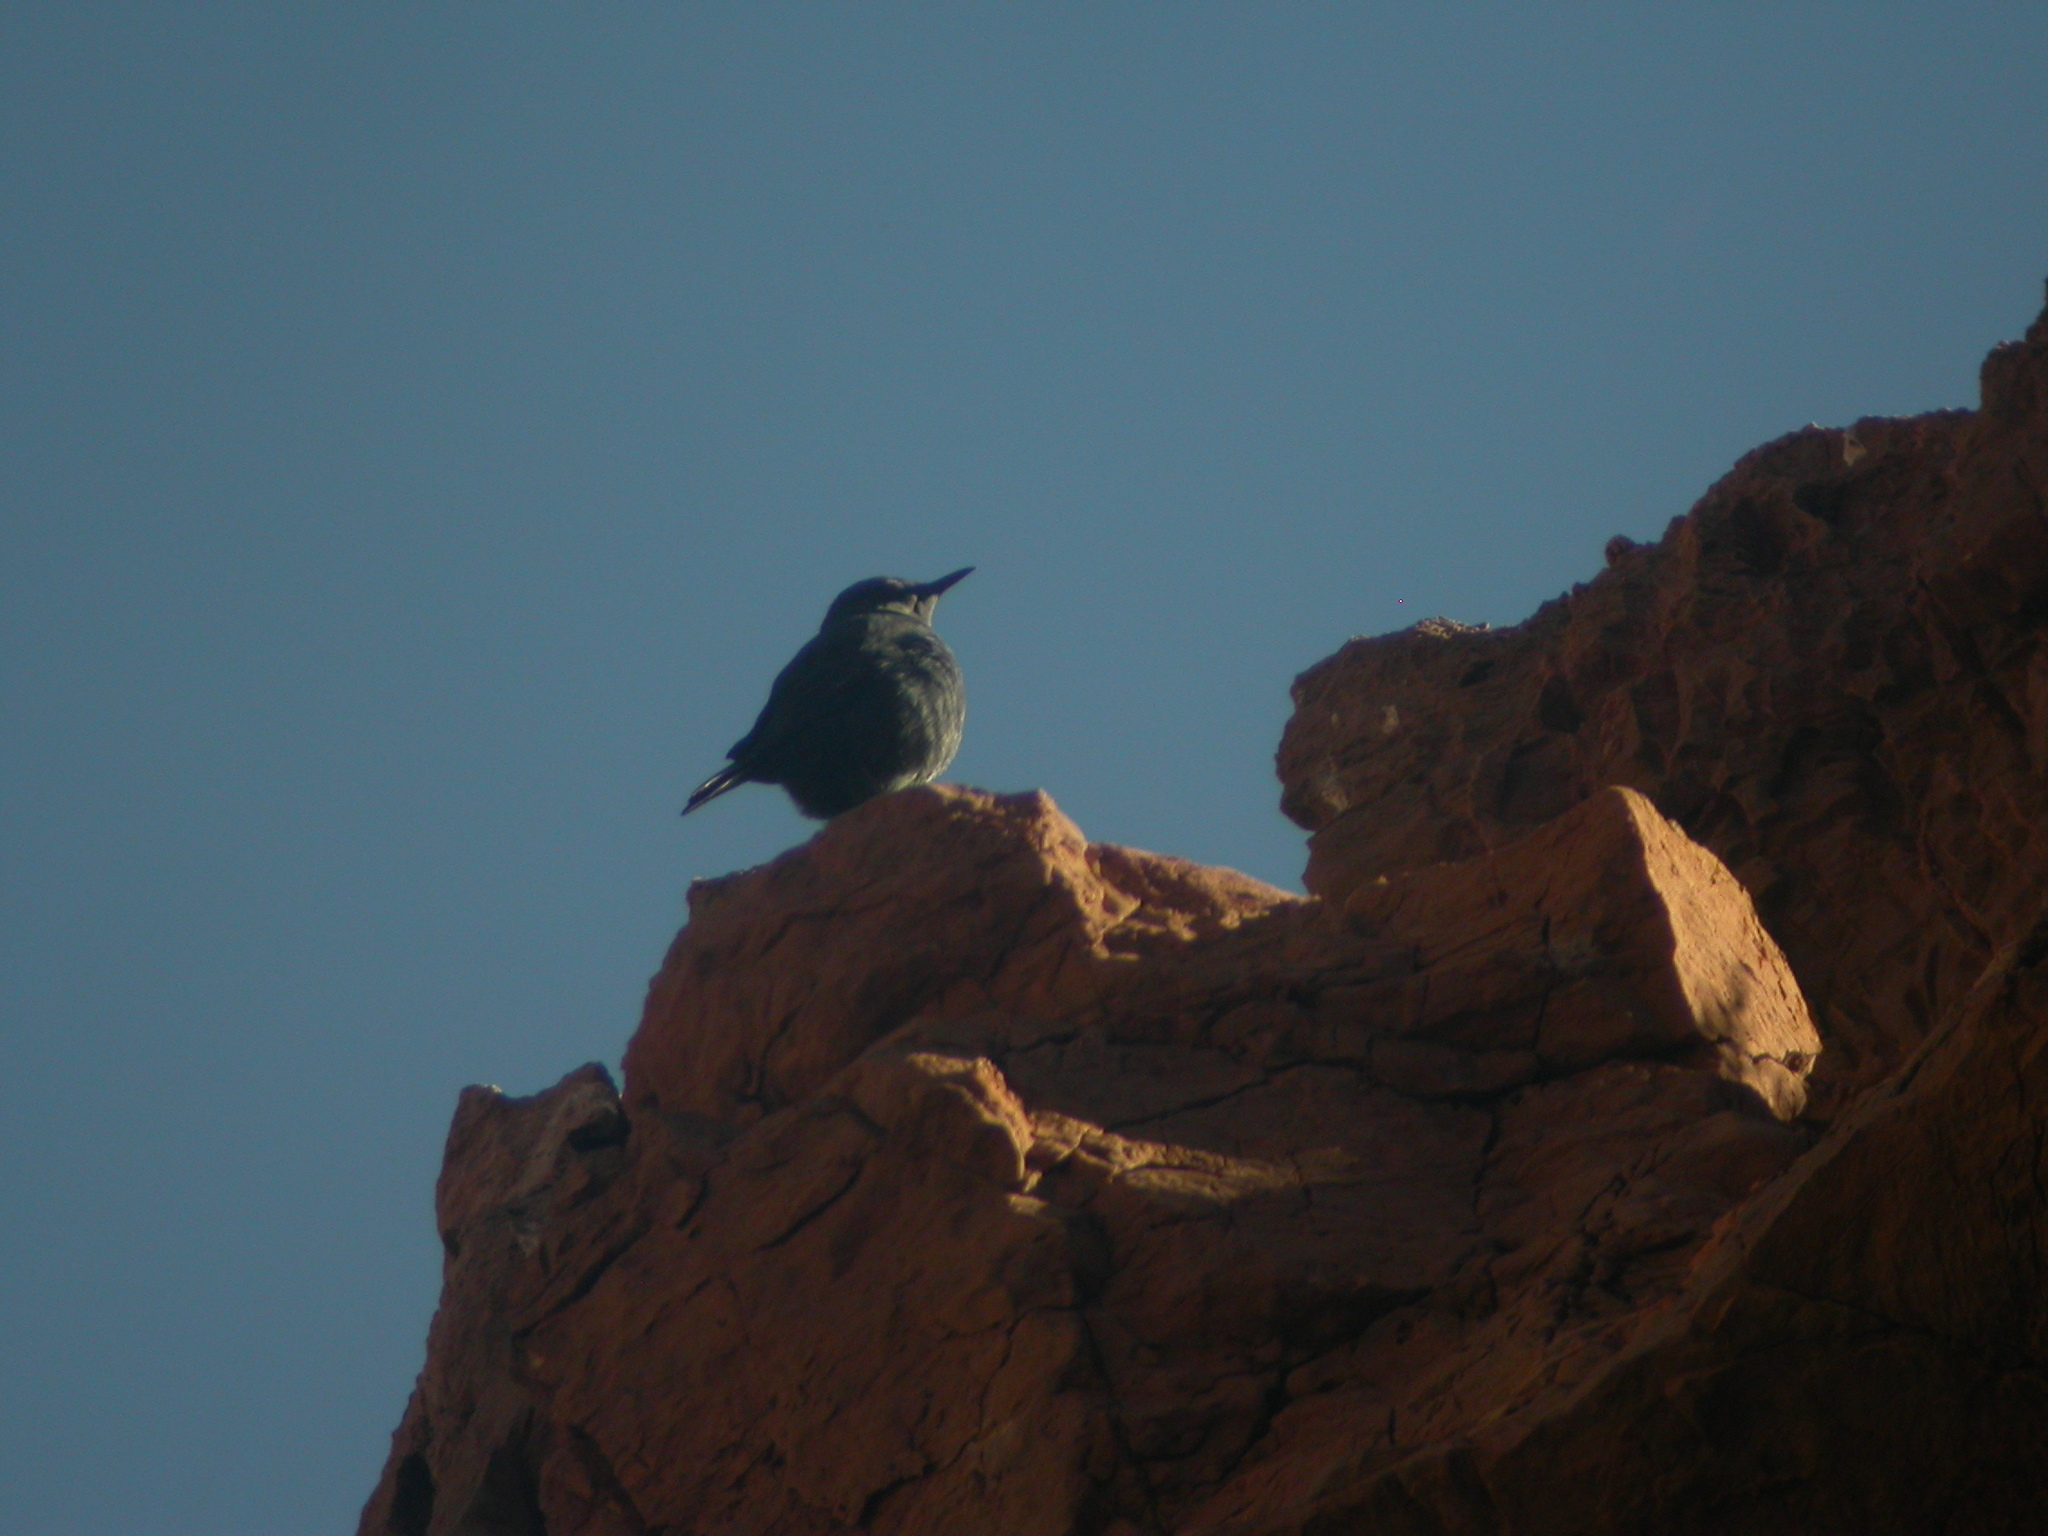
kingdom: Animalia
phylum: Chordata
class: Aves
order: Passeriformes
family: Muscicapidae
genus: Monticola
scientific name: Monticola solitarius
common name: Blue rock thrush
